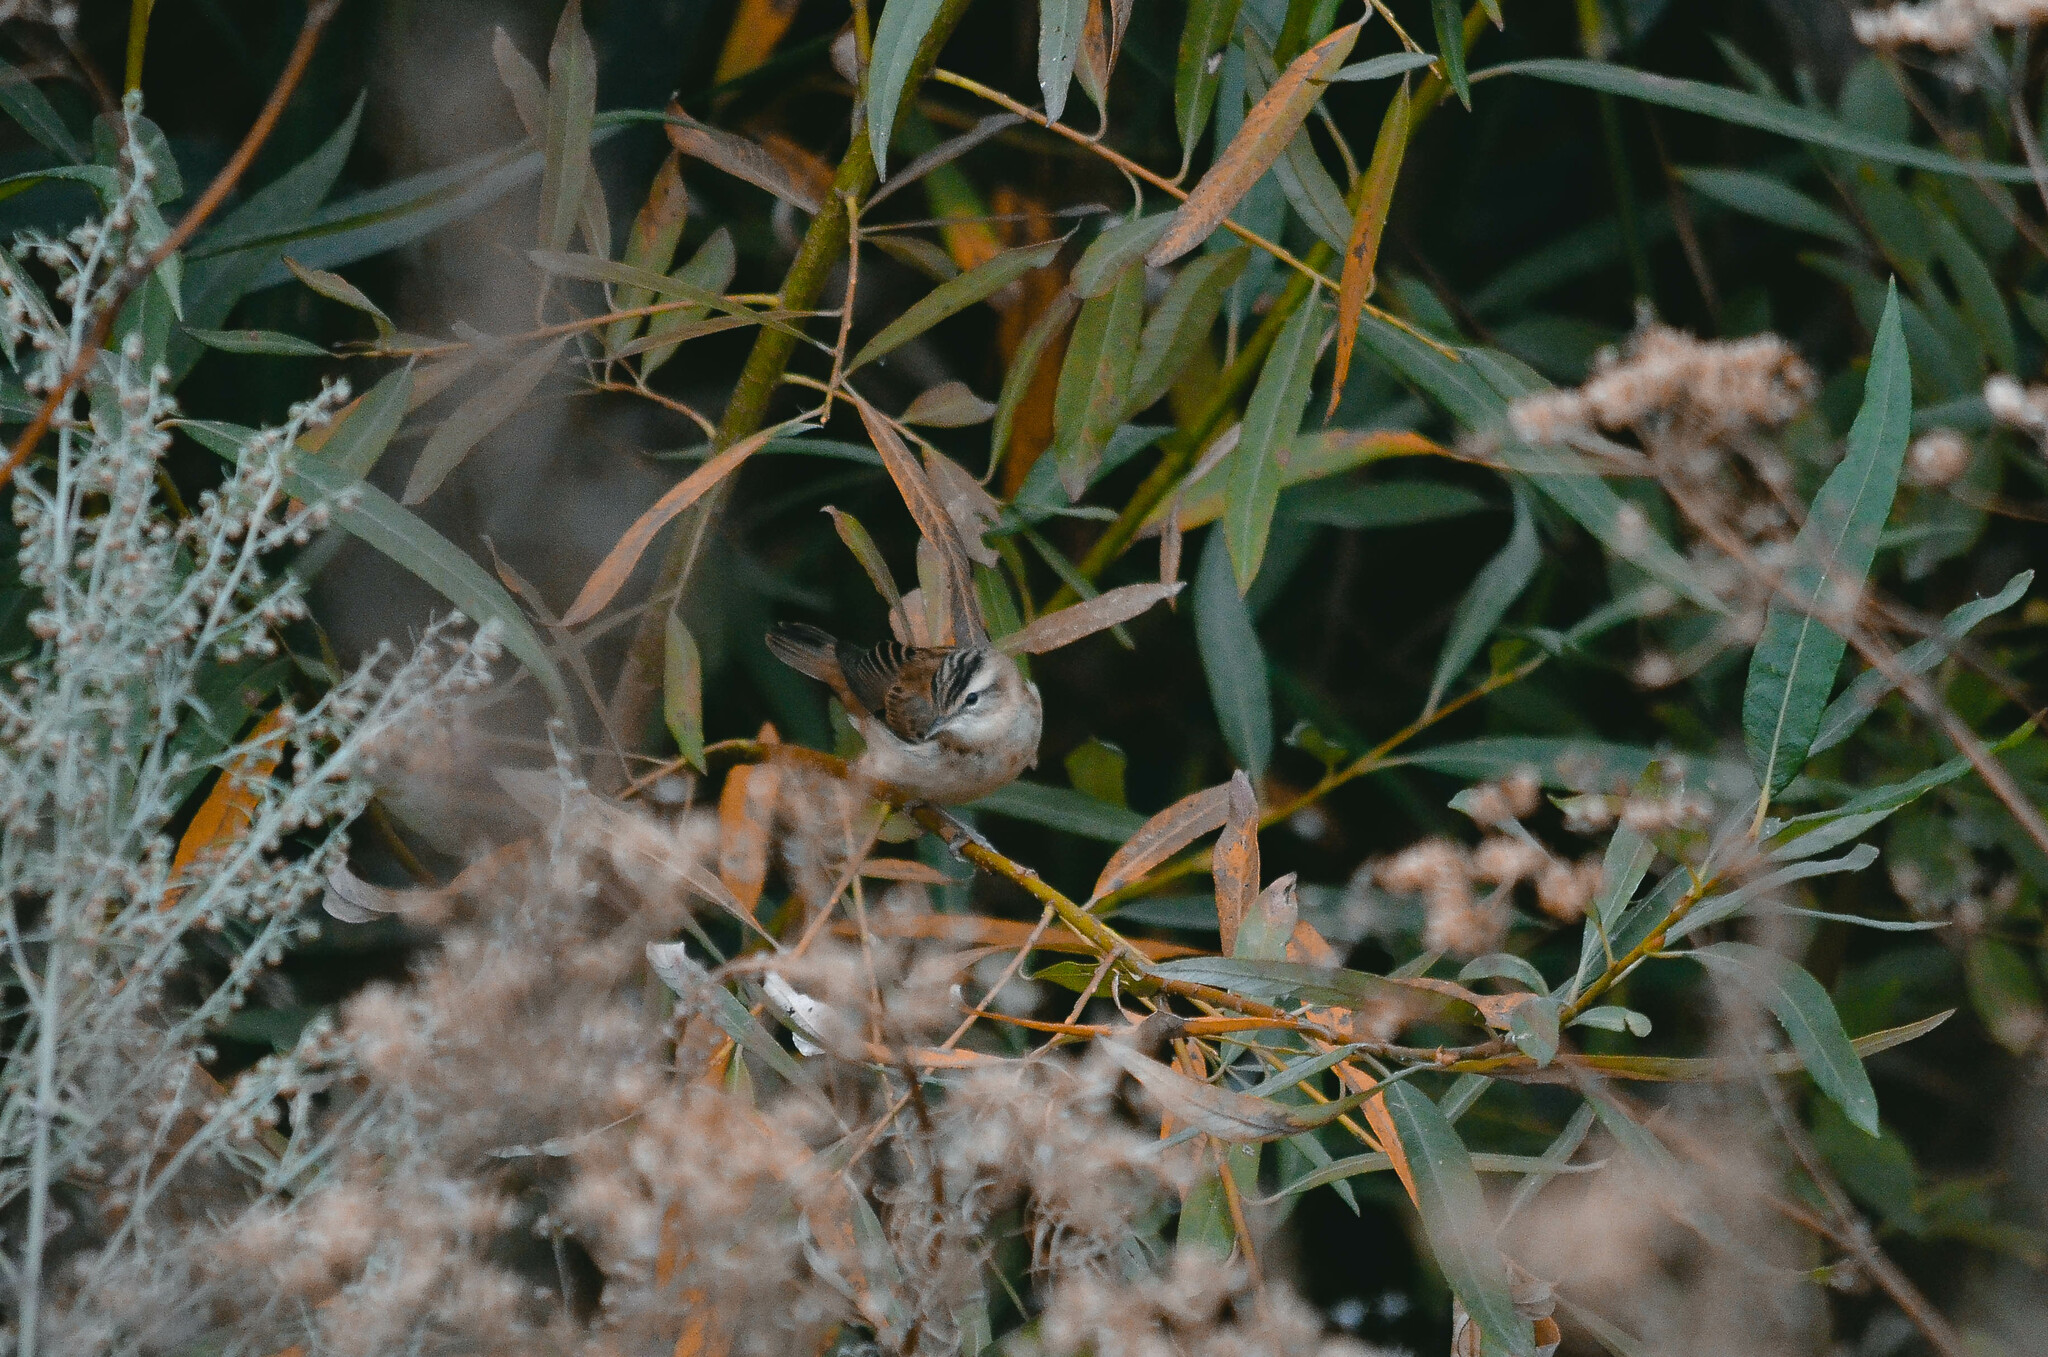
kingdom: Animalia
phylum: Chordata
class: Aves
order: Passeriformes
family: Acrocephalidae
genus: Acrocephalus
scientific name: Acrocephalus schoenobaenus
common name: Sedge warbler
